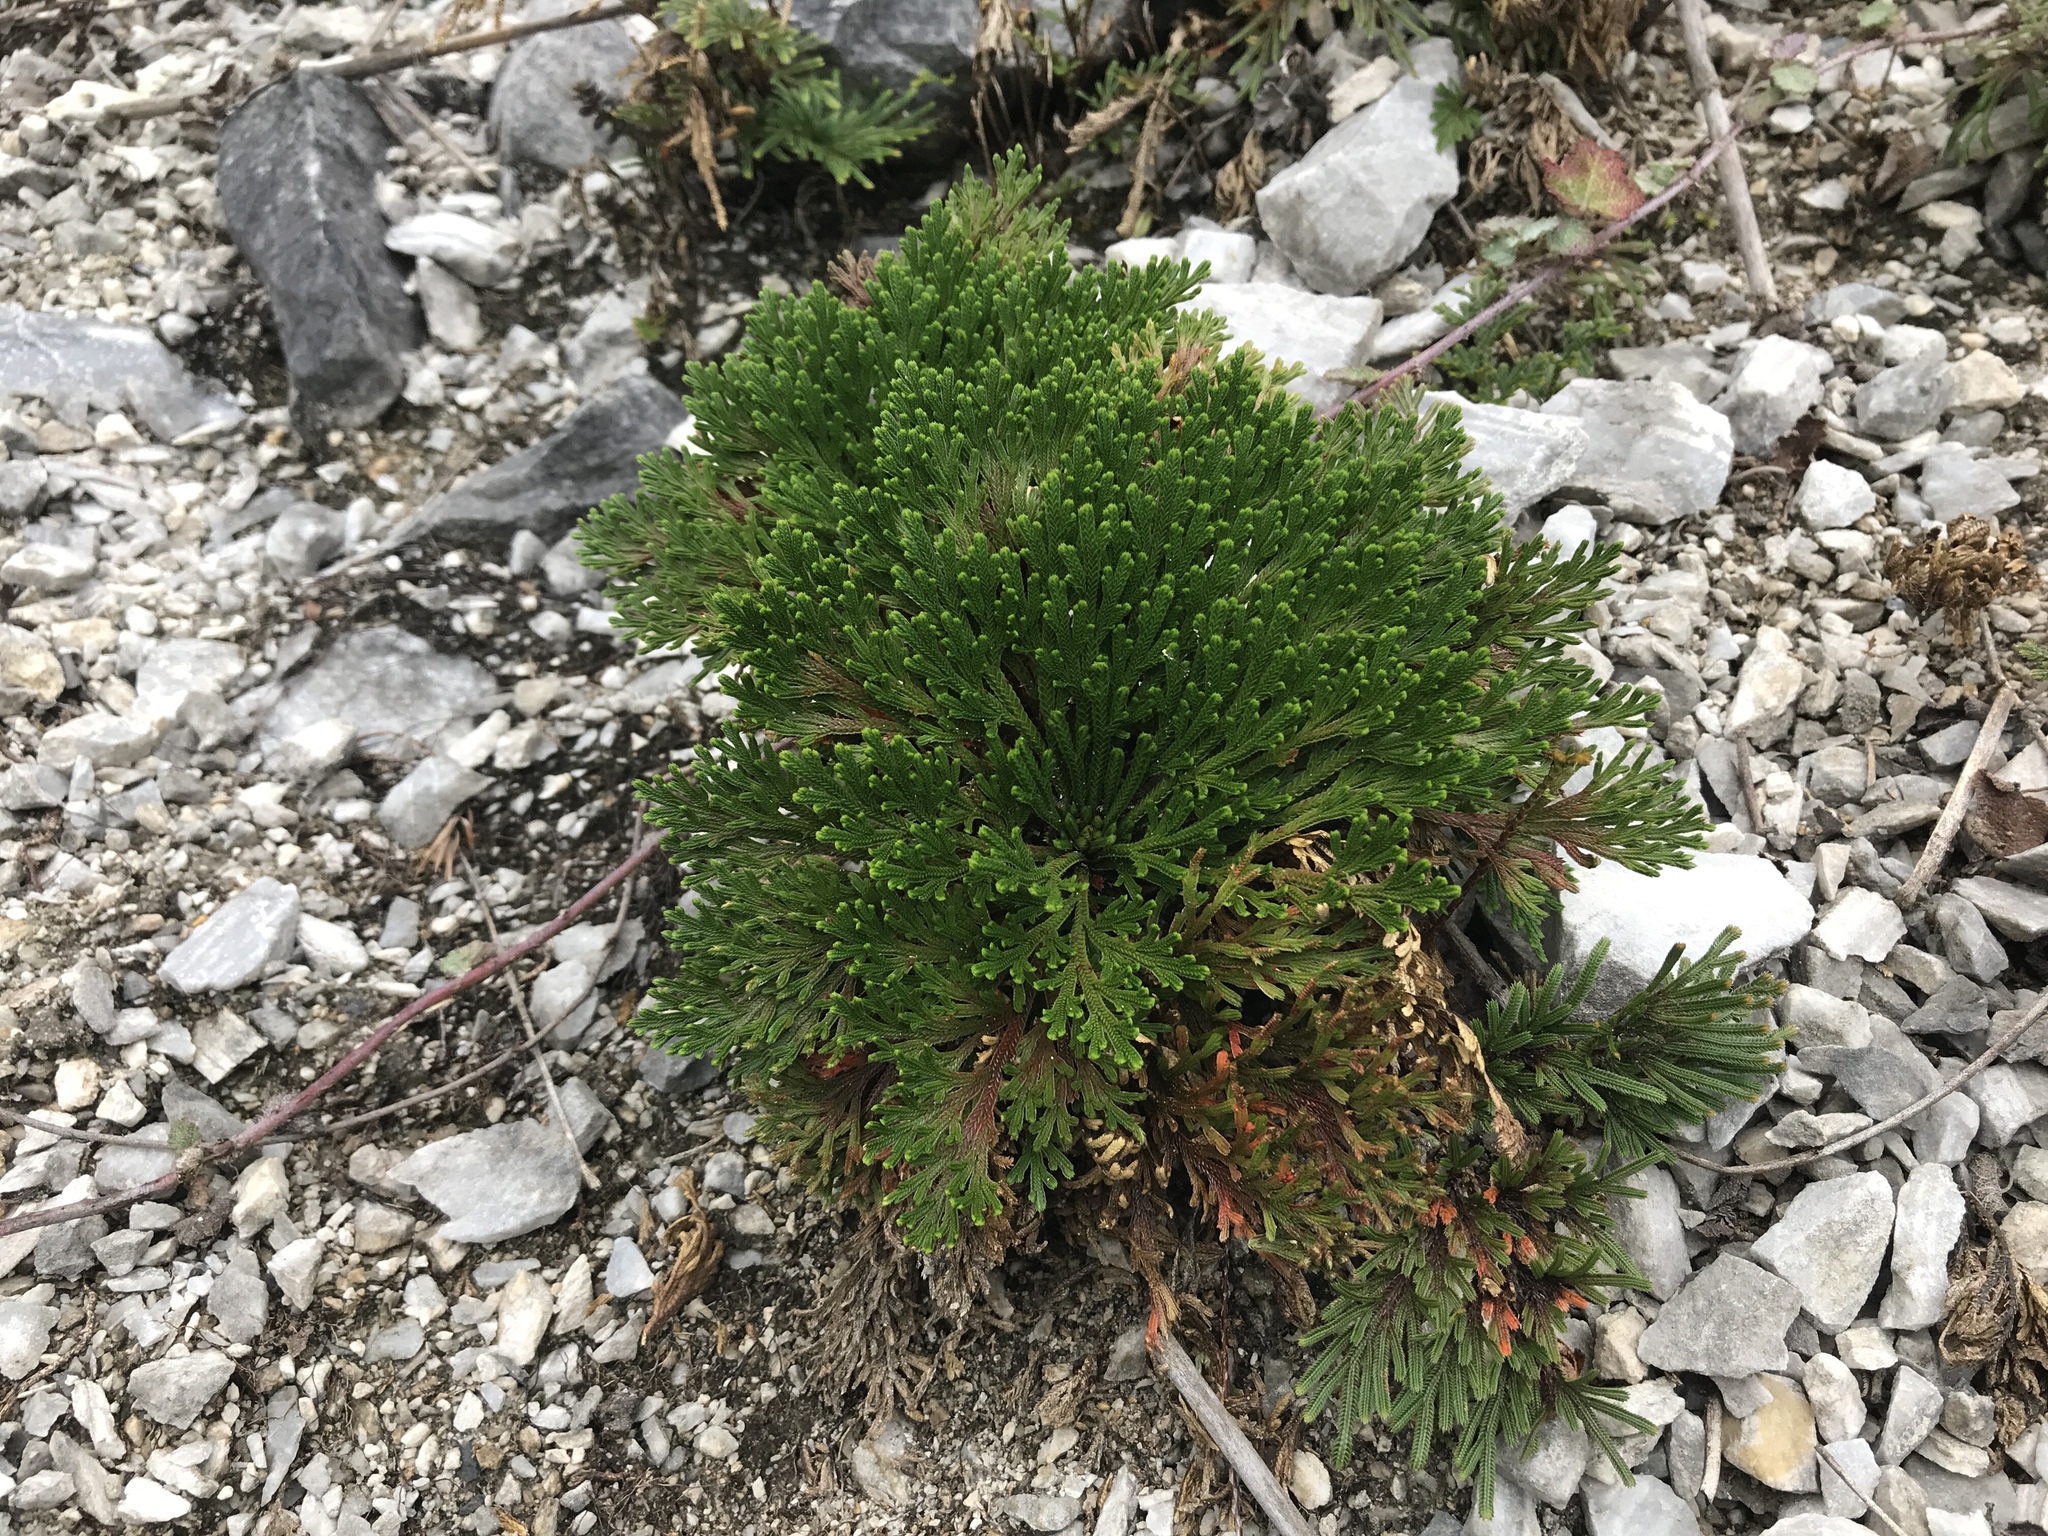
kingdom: Plantae
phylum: Tracheophyta
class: Lycopodiopsida
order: Selaginellales
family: Selaginellaceae
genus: Selaginella
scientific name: Selaginella tamariscina
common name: Little-club-moss
